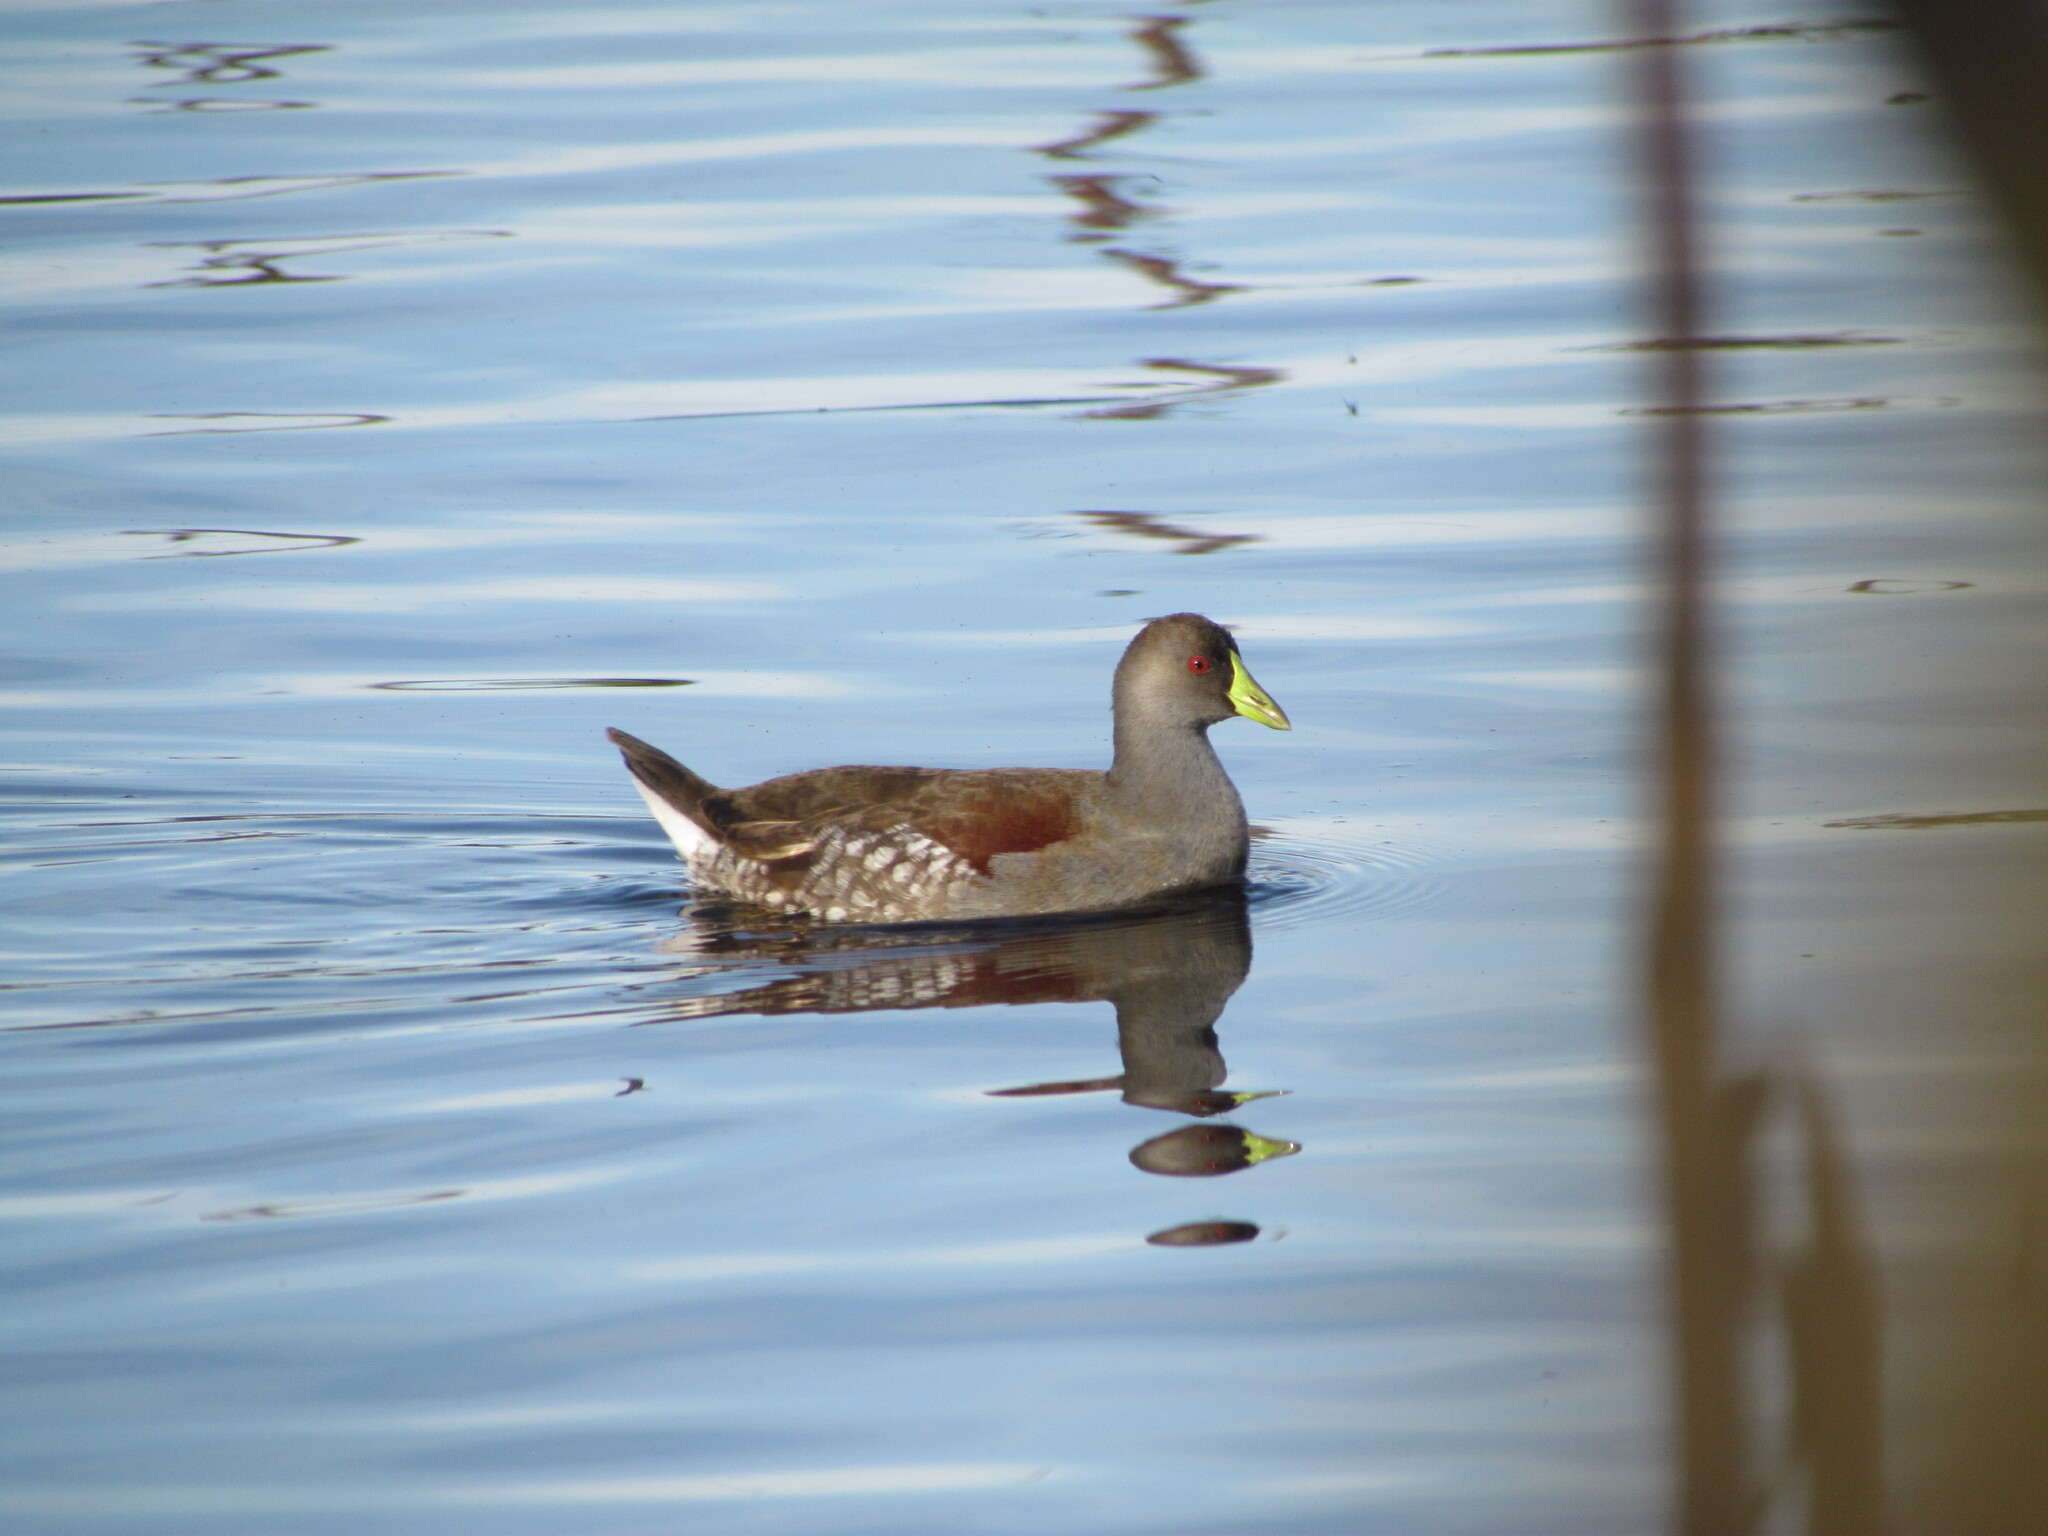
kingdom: Animalia
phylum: Chordata
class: Aves
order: Gruiformes
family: Rallidae
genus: Gallinula
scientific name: Gallinula melanops
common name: Spot-flanked gallinule
